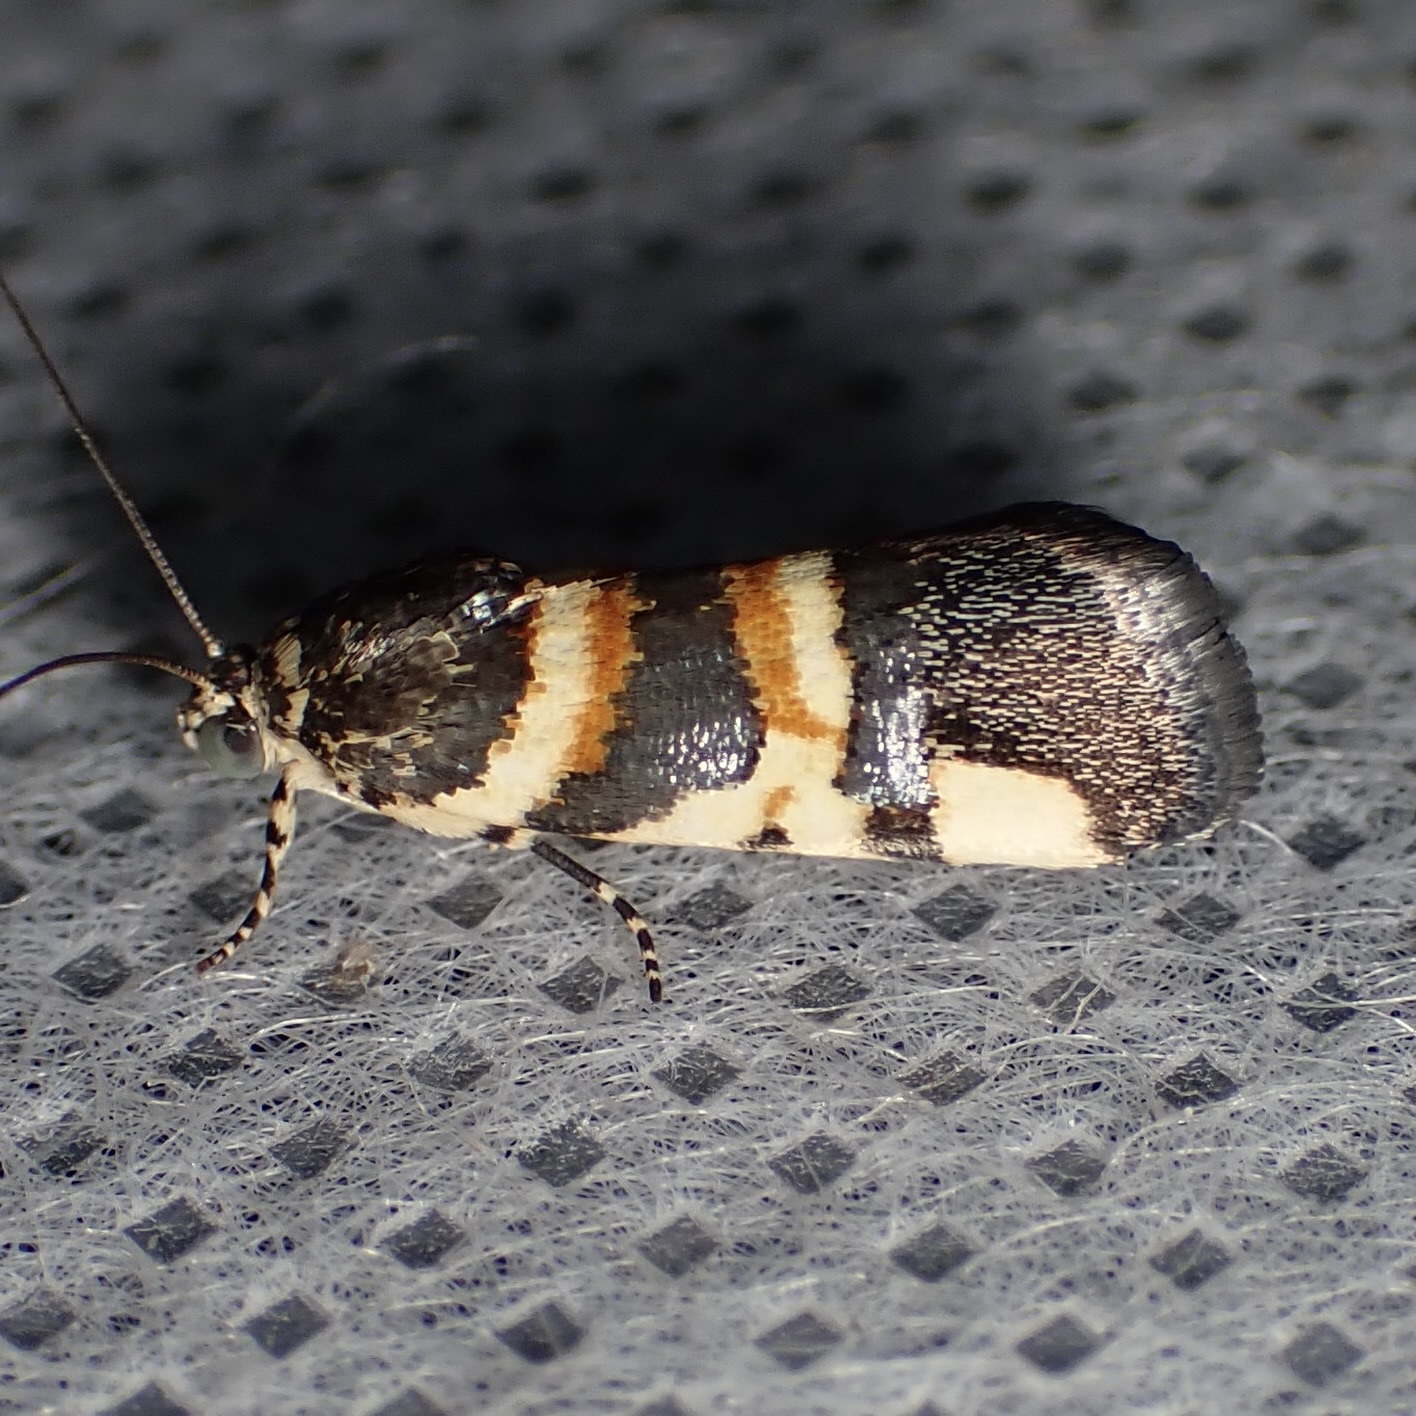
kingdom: Animalia
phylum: Arthropoda
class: Insecta
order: Lepidoptera
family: Noctuidae
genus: Spragueia
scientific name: Spragueia funeralis
